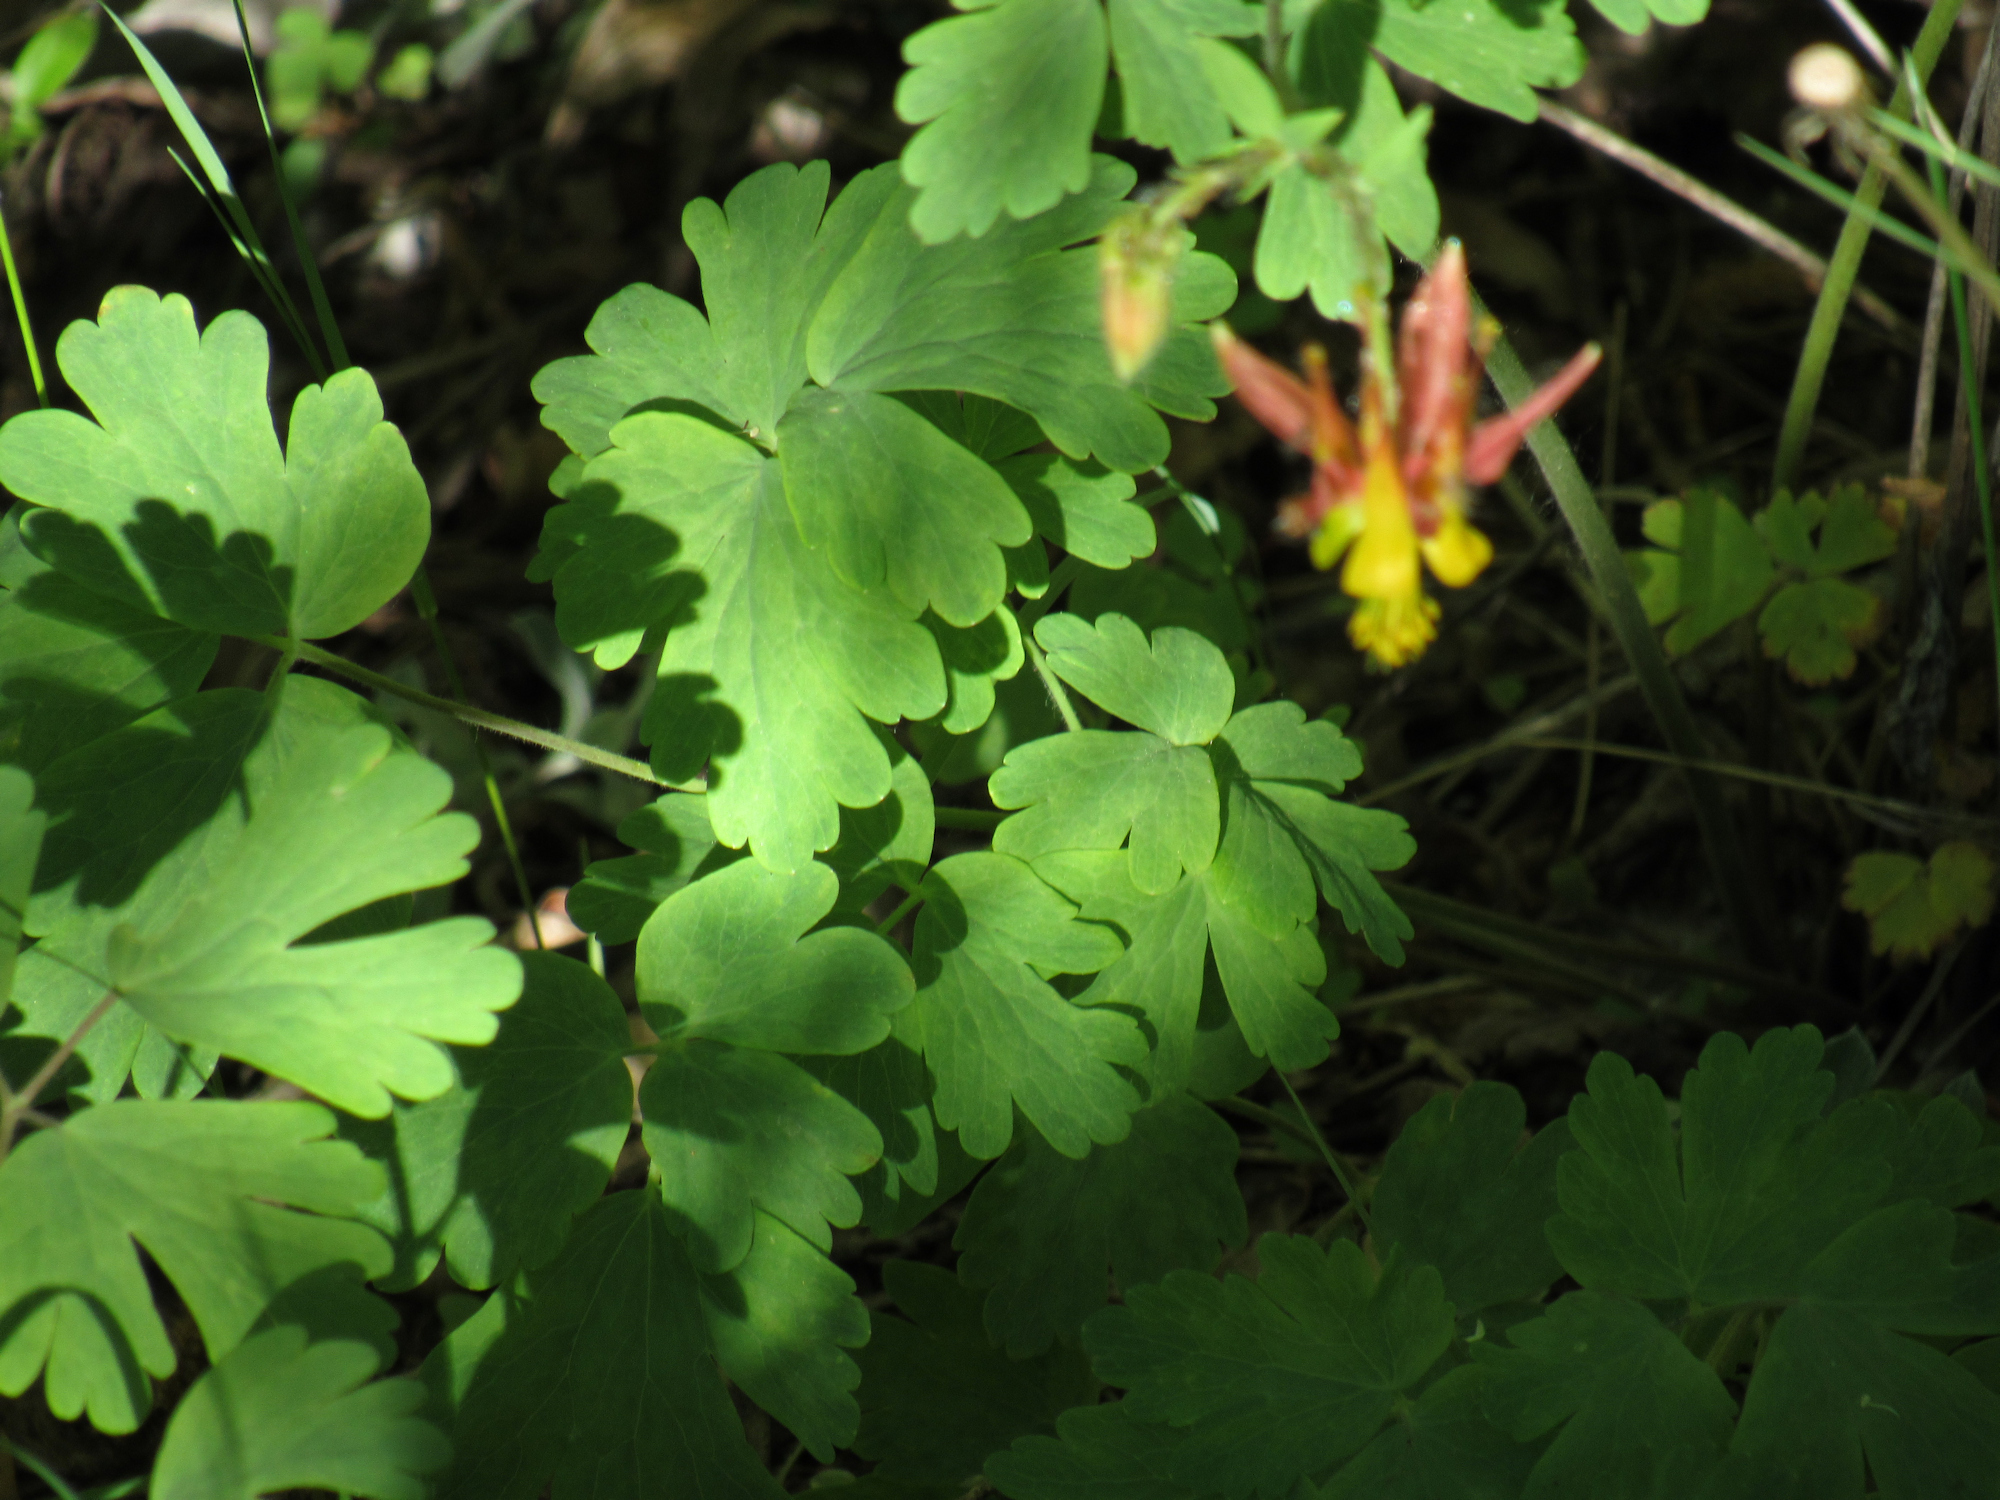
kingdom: Plantae
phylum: Tracheophyta
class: Magnoliopsida
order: Ranunculales
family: Ranunculaceae
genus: Aquilegia
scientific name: Aquilegia formosa
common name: Sitka columbine
